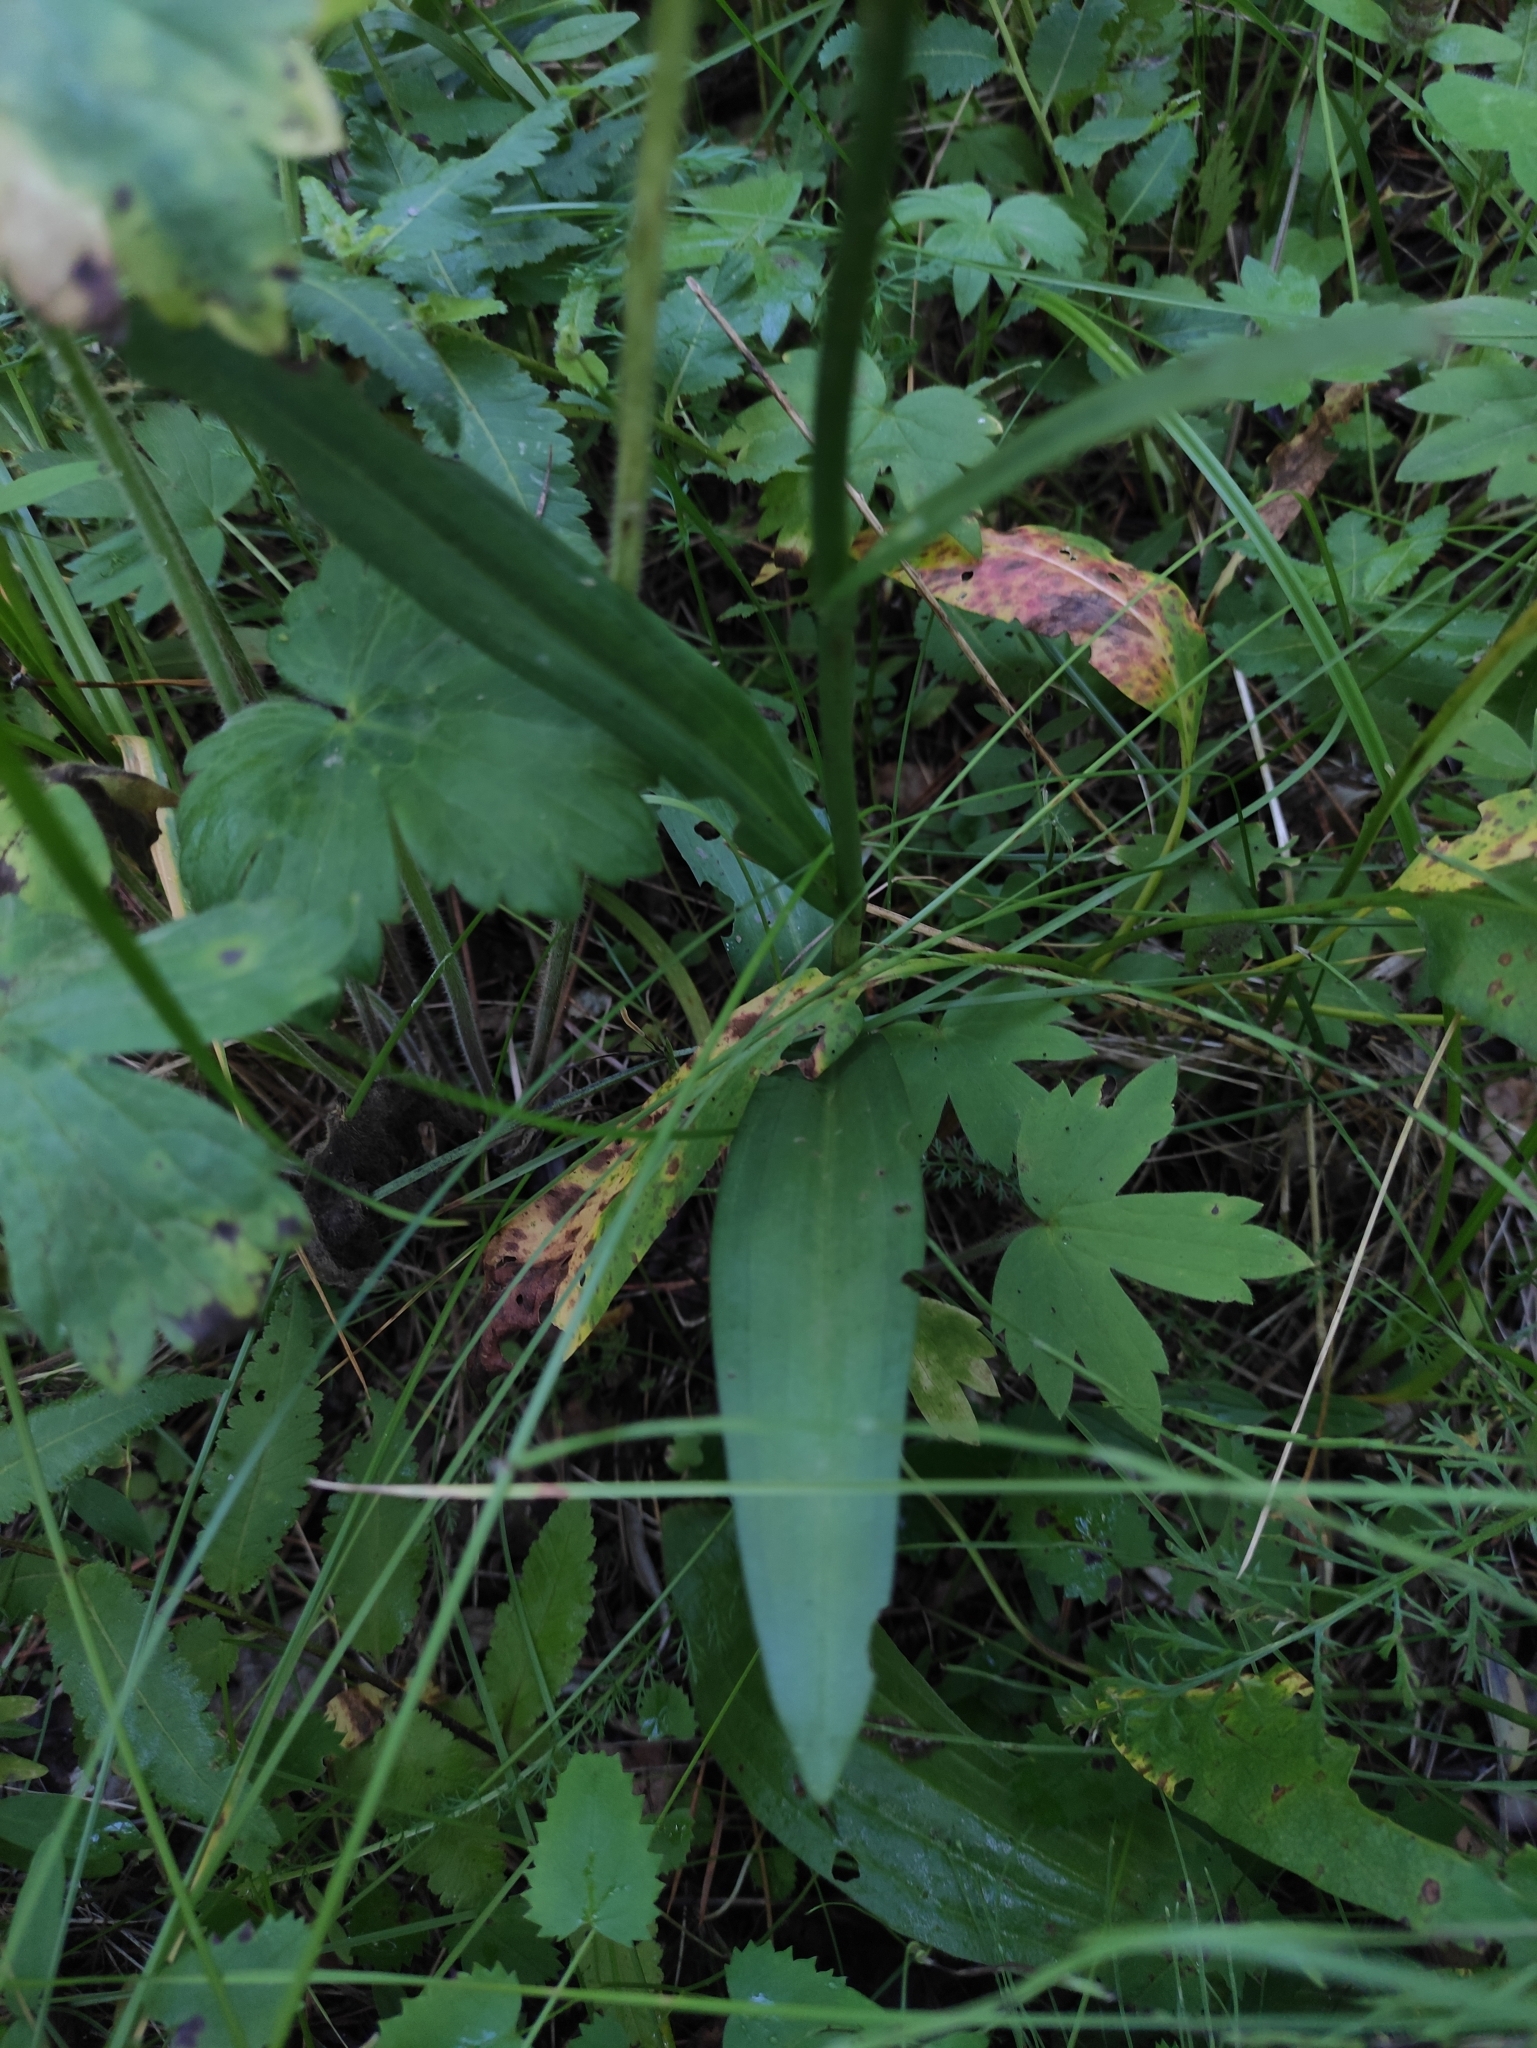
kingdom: Plantae
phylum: Tracheophyta
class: Liliopsida
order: Asparagales
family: Orchidaceae
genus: Dactylorhiza
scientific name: Dactylorhiza maculata
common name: Heath spotted-orchid
